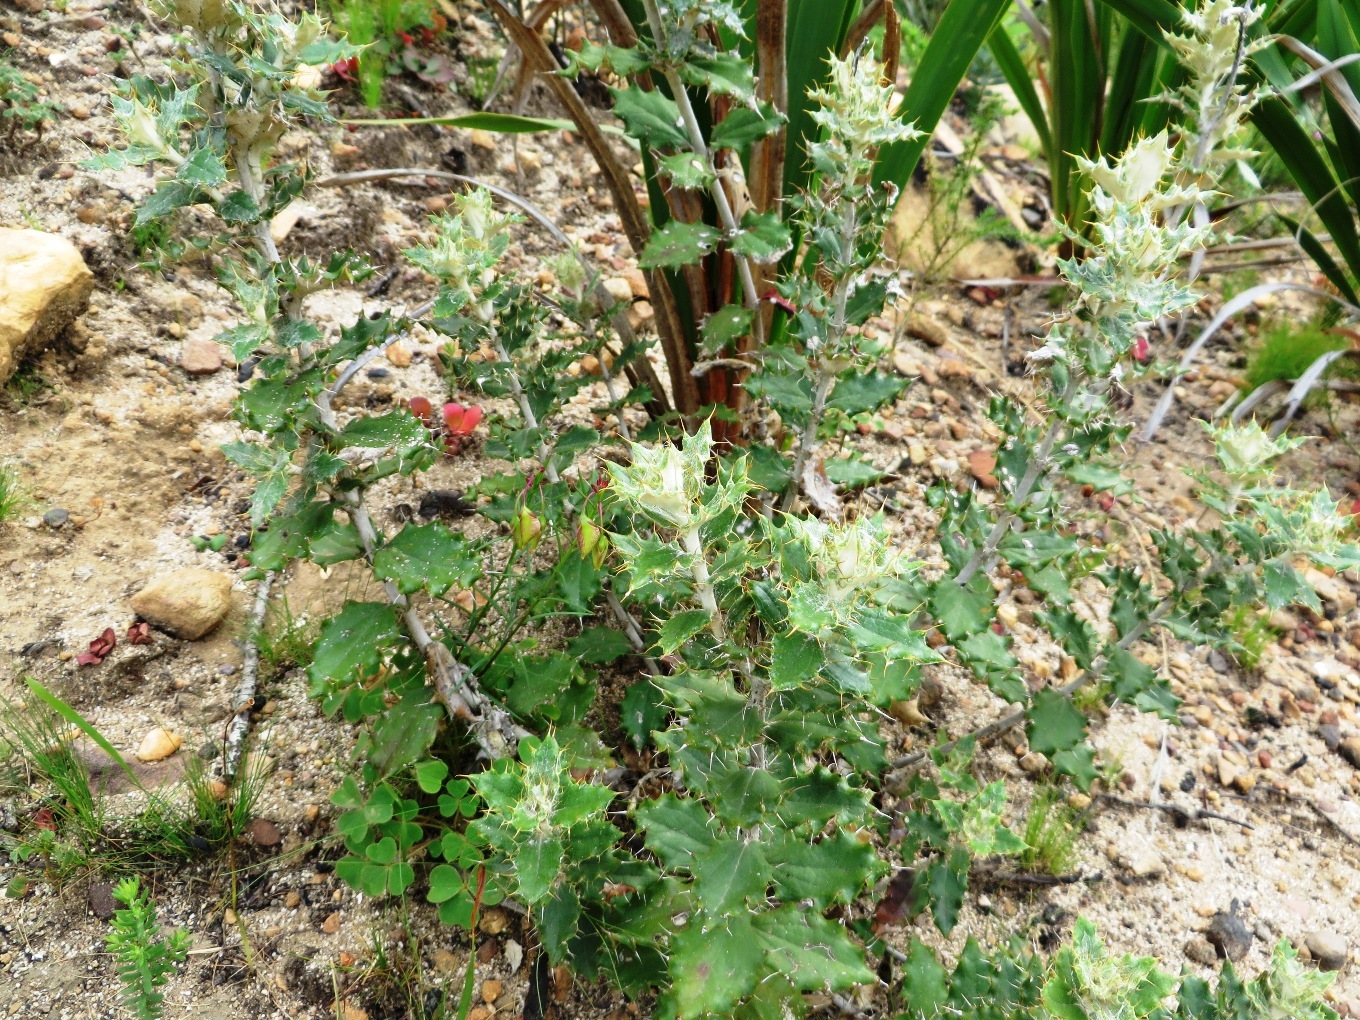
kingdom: Plantae
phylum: Tracheophyta
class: Magnoliopsida
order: Asterales
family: Asteraceae
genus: Berkheya
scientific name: Berkheya barbata
